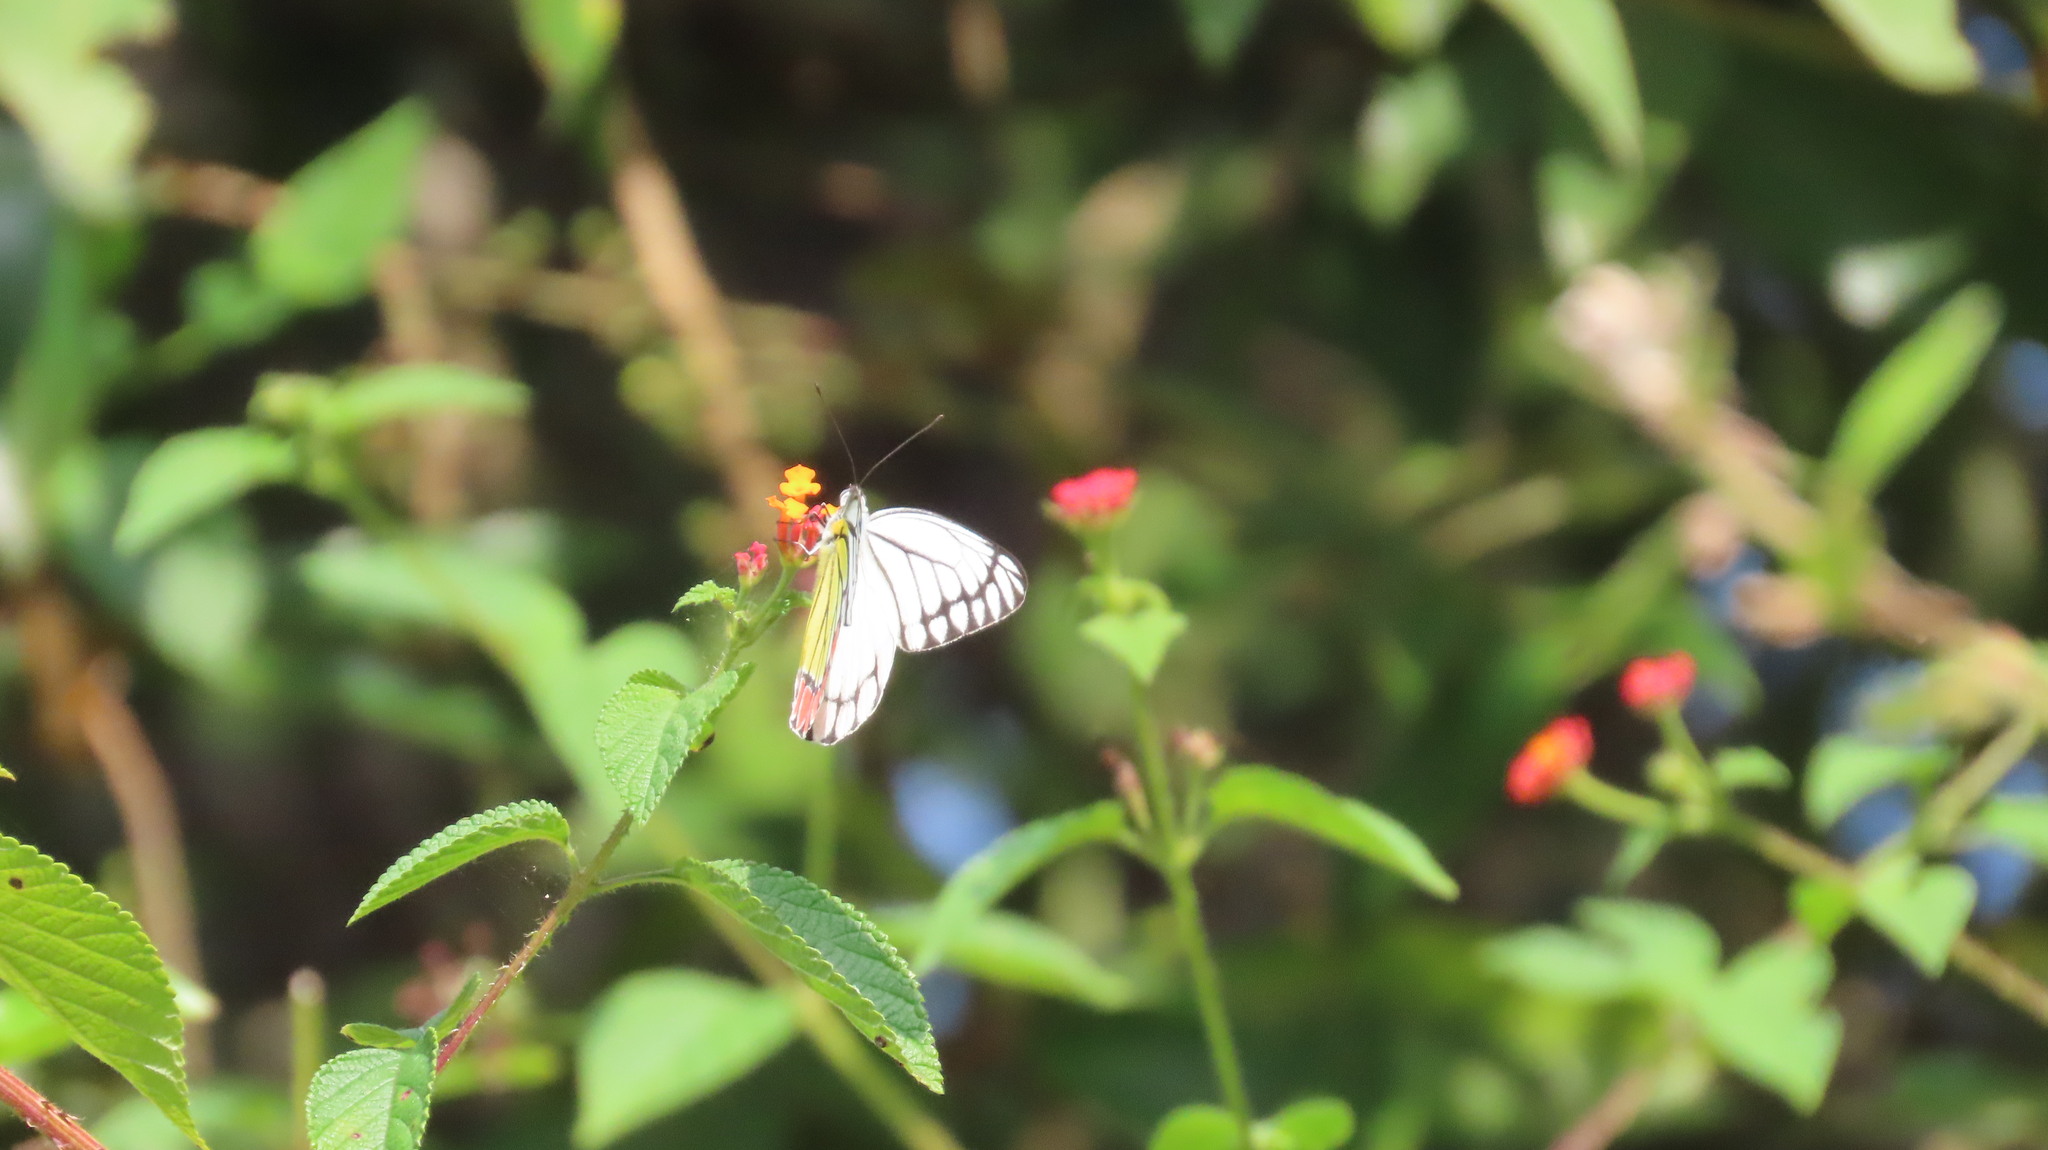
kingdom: Animalia
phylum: Arthropoda
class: Insecta
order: Lepidoptera
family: Pieridae
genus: Delias
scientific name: Delias eucharis
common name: Common jezebel
